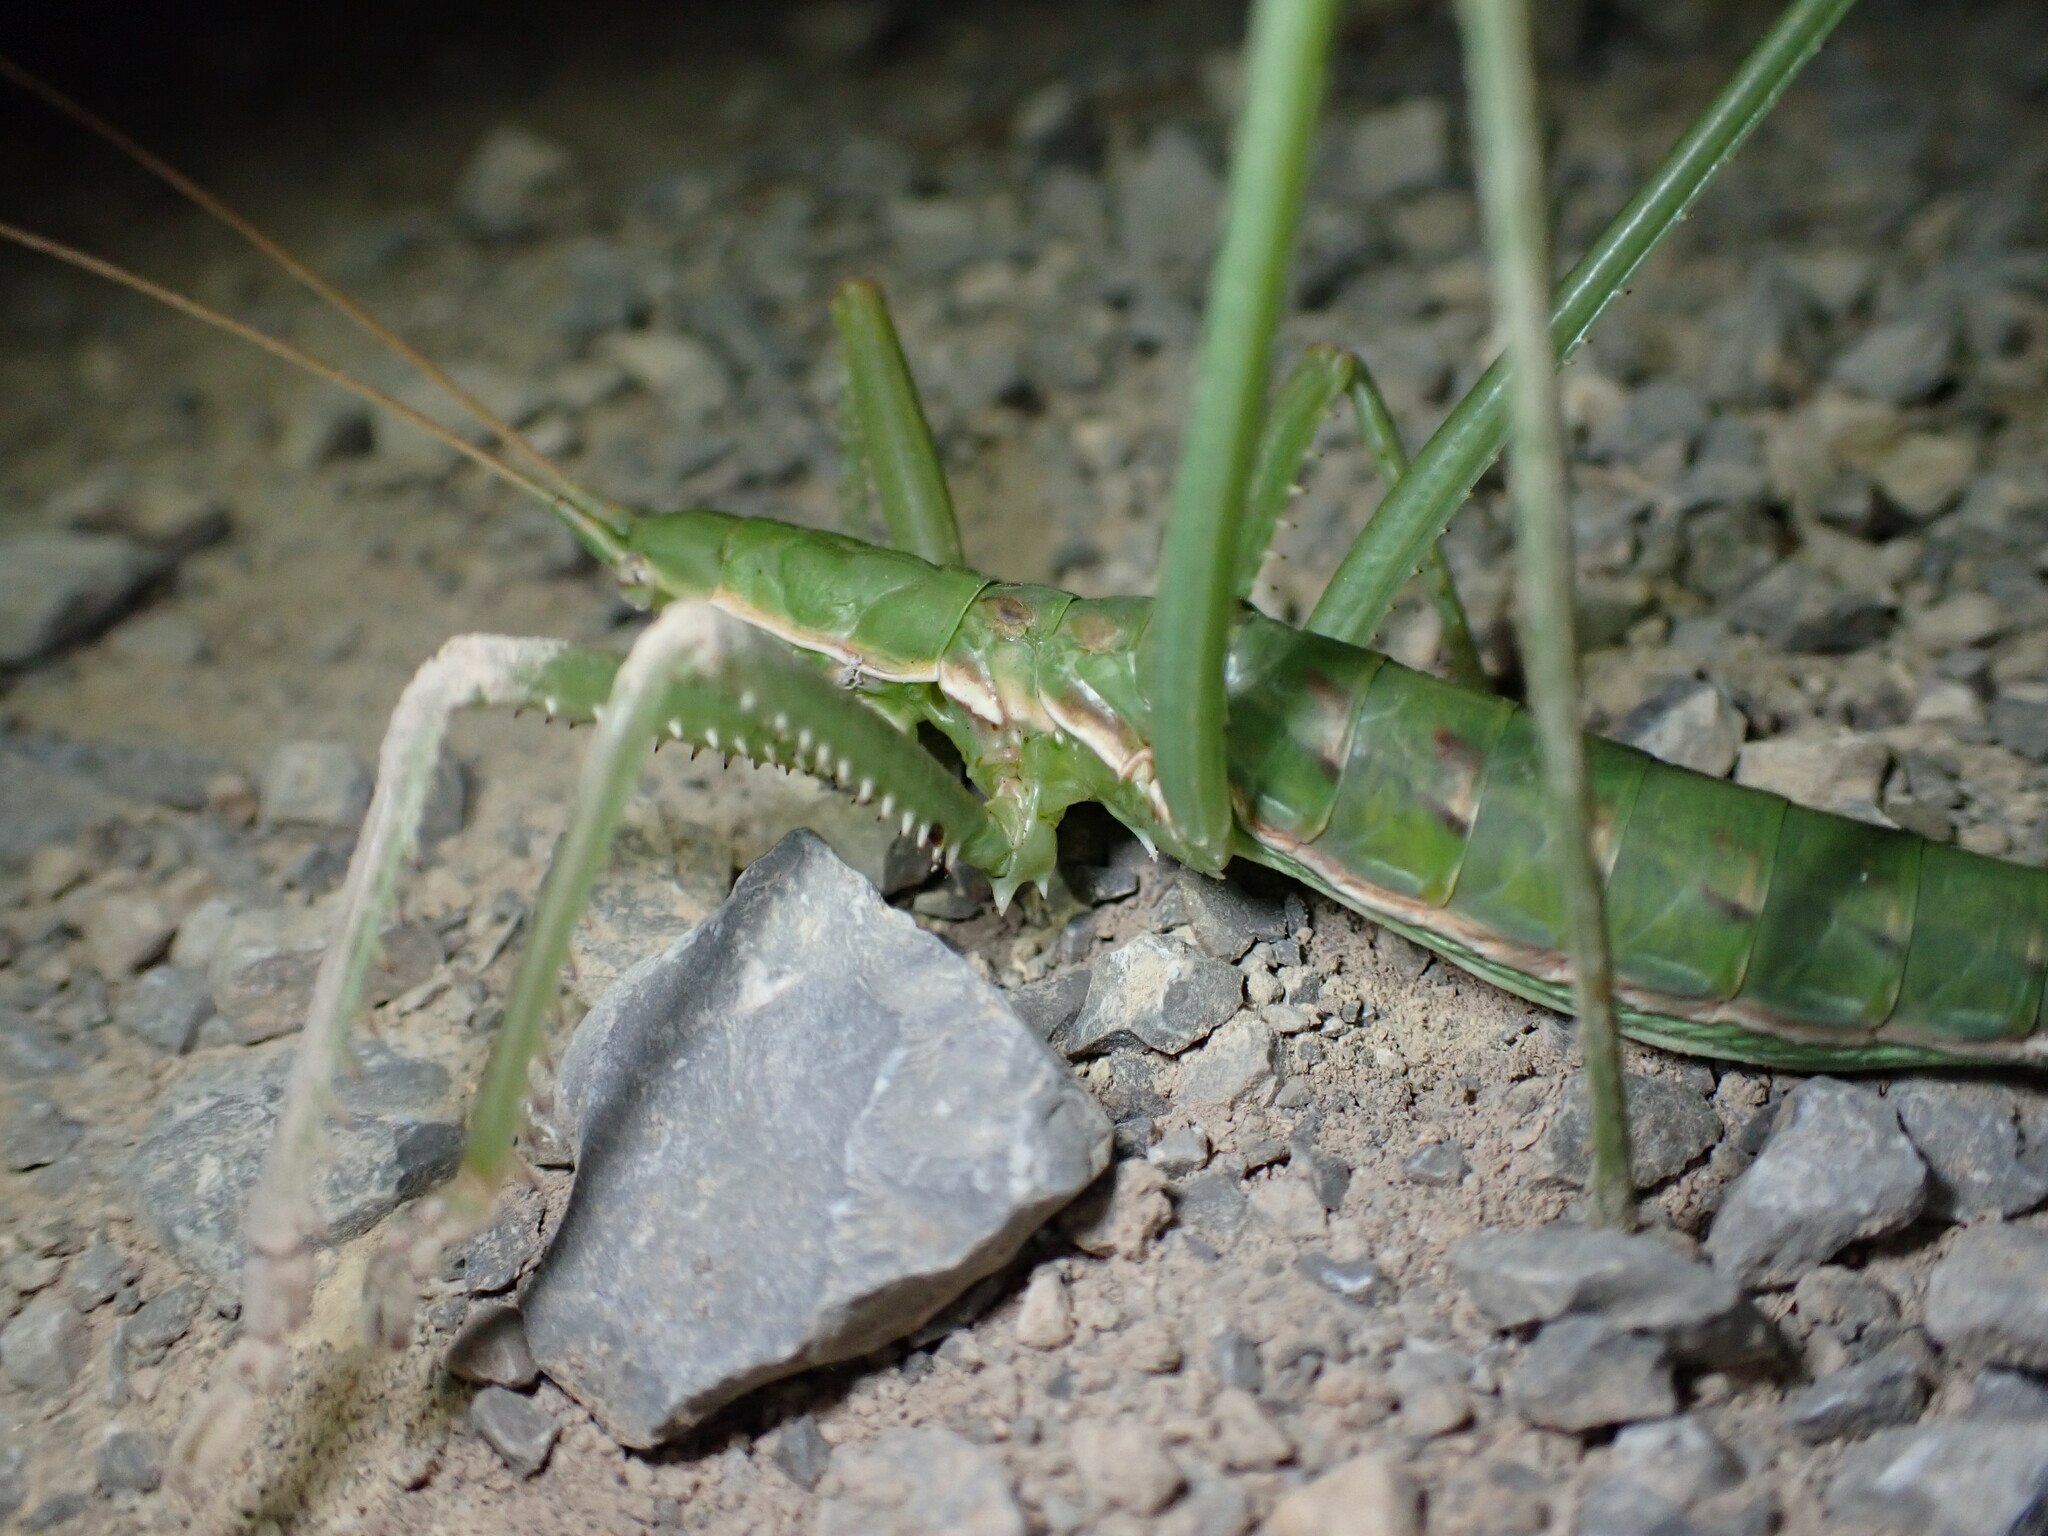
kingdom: Animalia
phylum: Arthropoda
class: Insecta
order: Orthoptera
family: Tettigoniidae
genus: Saga
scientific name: Saga pedo
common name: Common predatory bush-cricket
